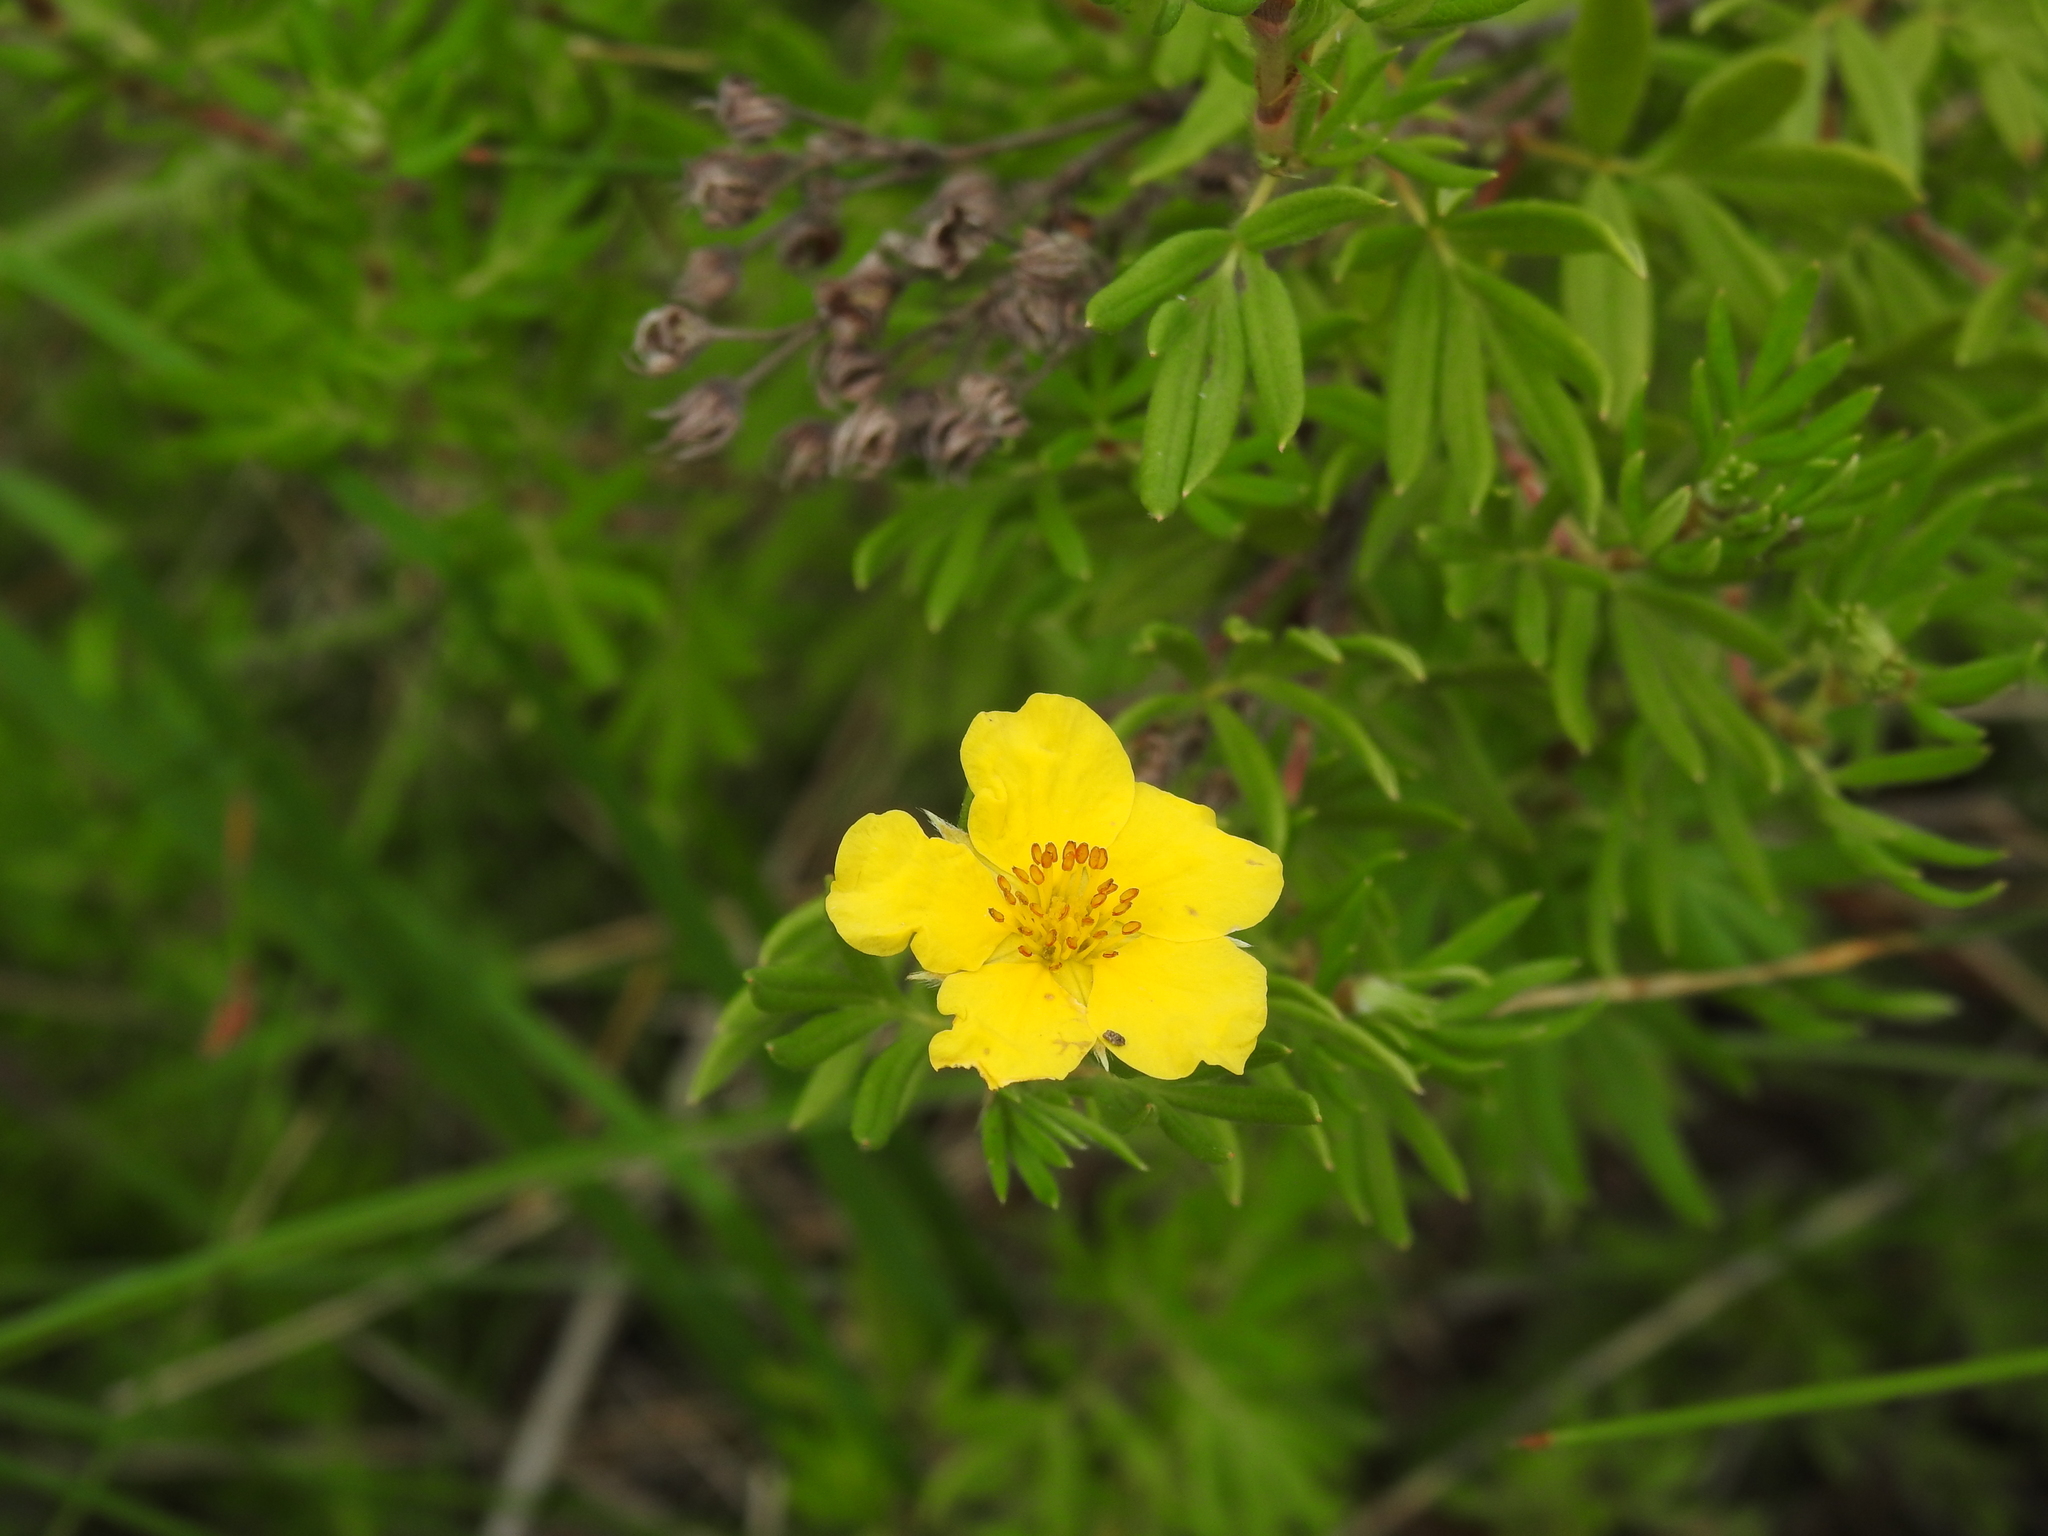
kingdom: Plantae
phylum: Tracheophyta
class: Magnoliopsida
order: Rosales
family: Rosaceae
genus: Dasiphora
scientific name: Dasiphora fruticosa
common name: Shrubby cinquefoil
